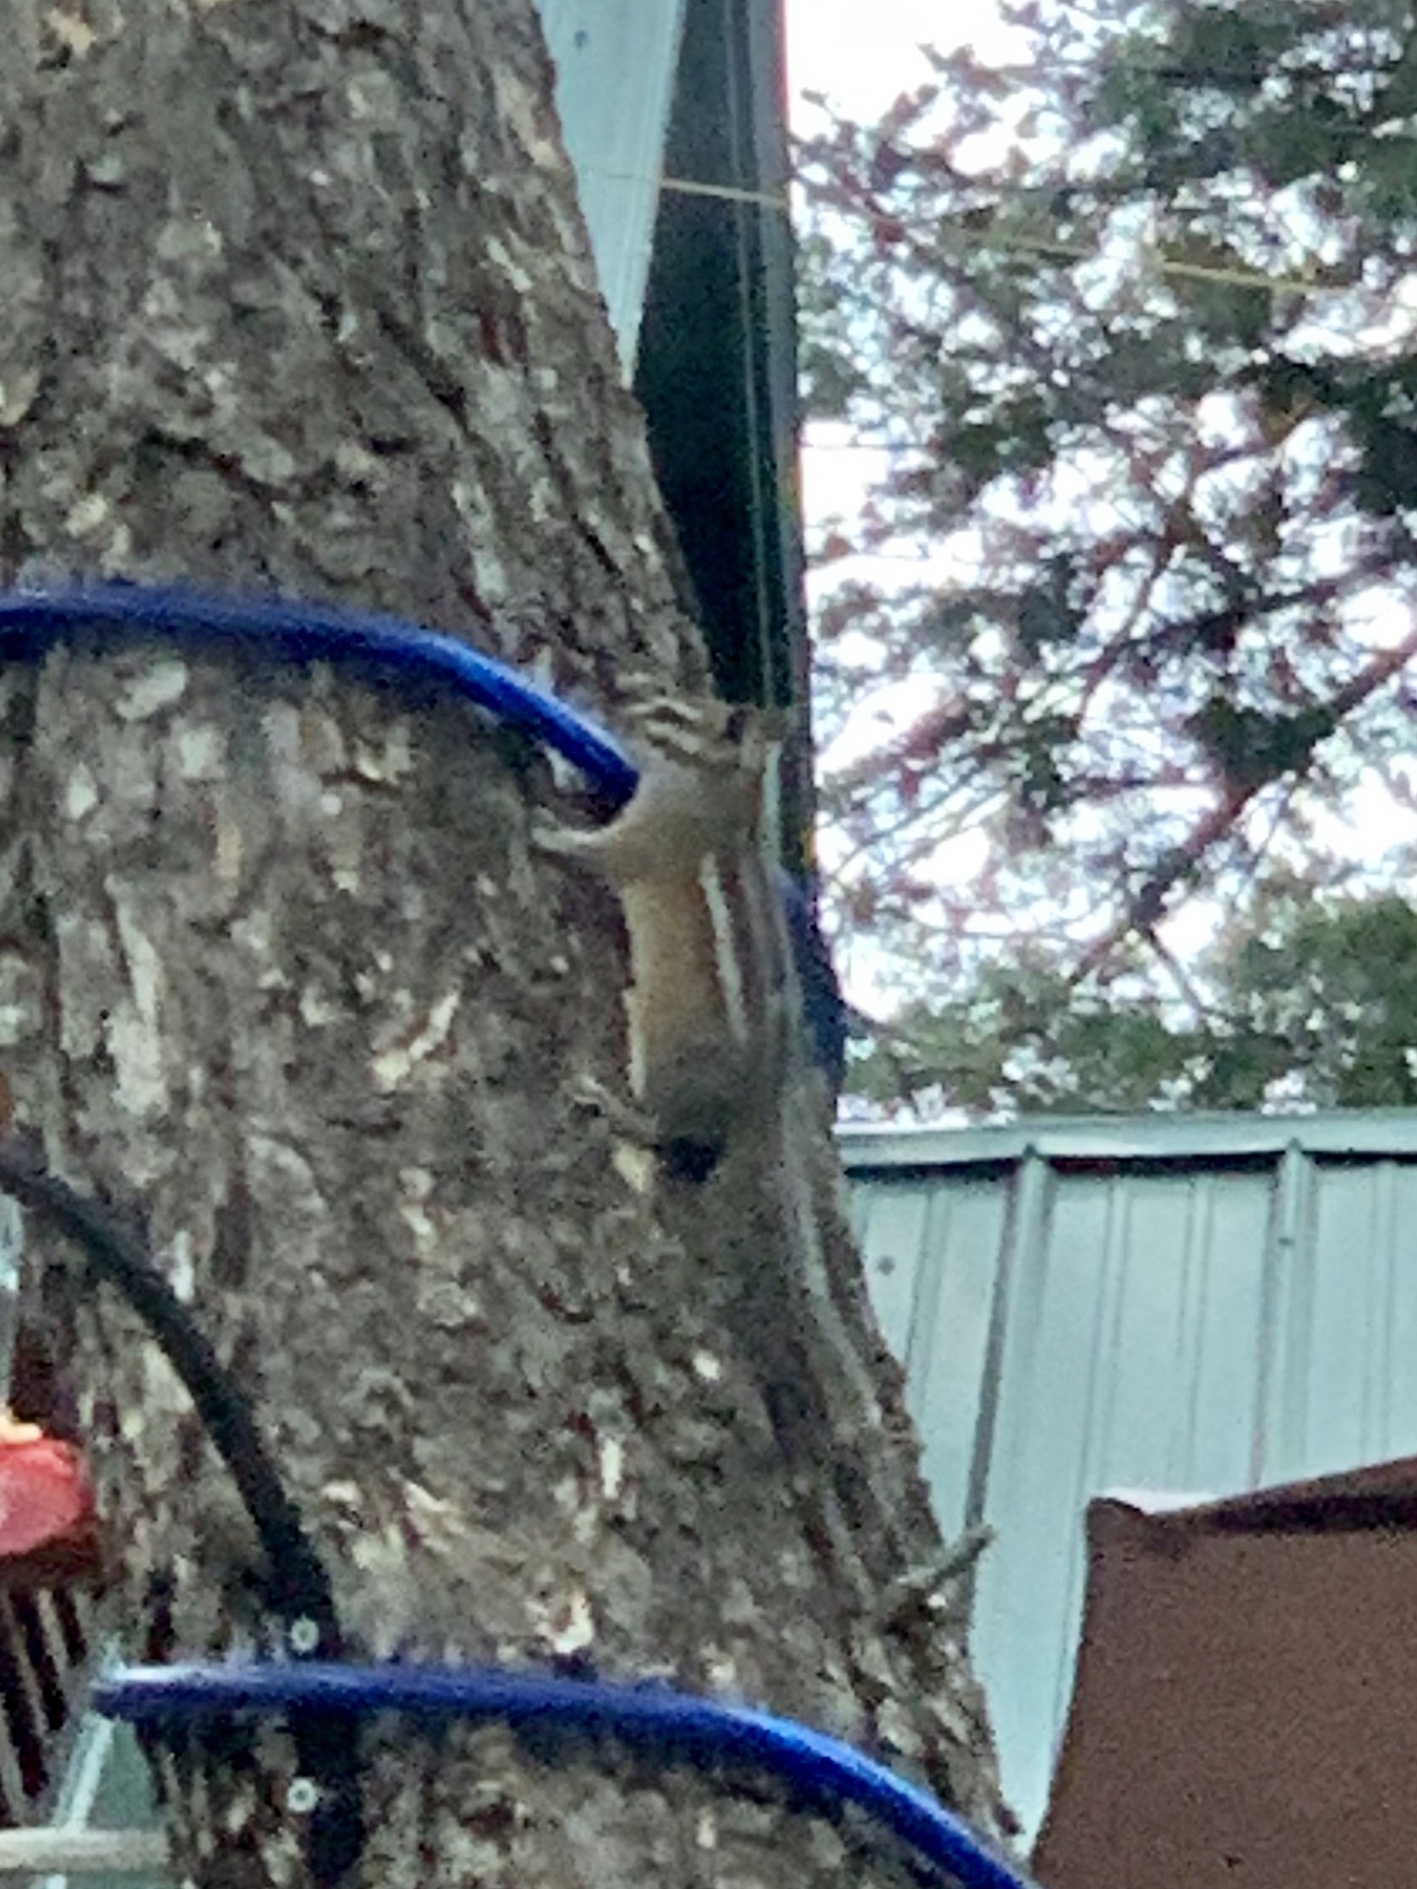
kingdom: Animalia
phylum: Chordata
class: Mammalia
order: Rodentia
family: Sciuridae
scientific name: Sciuridae
